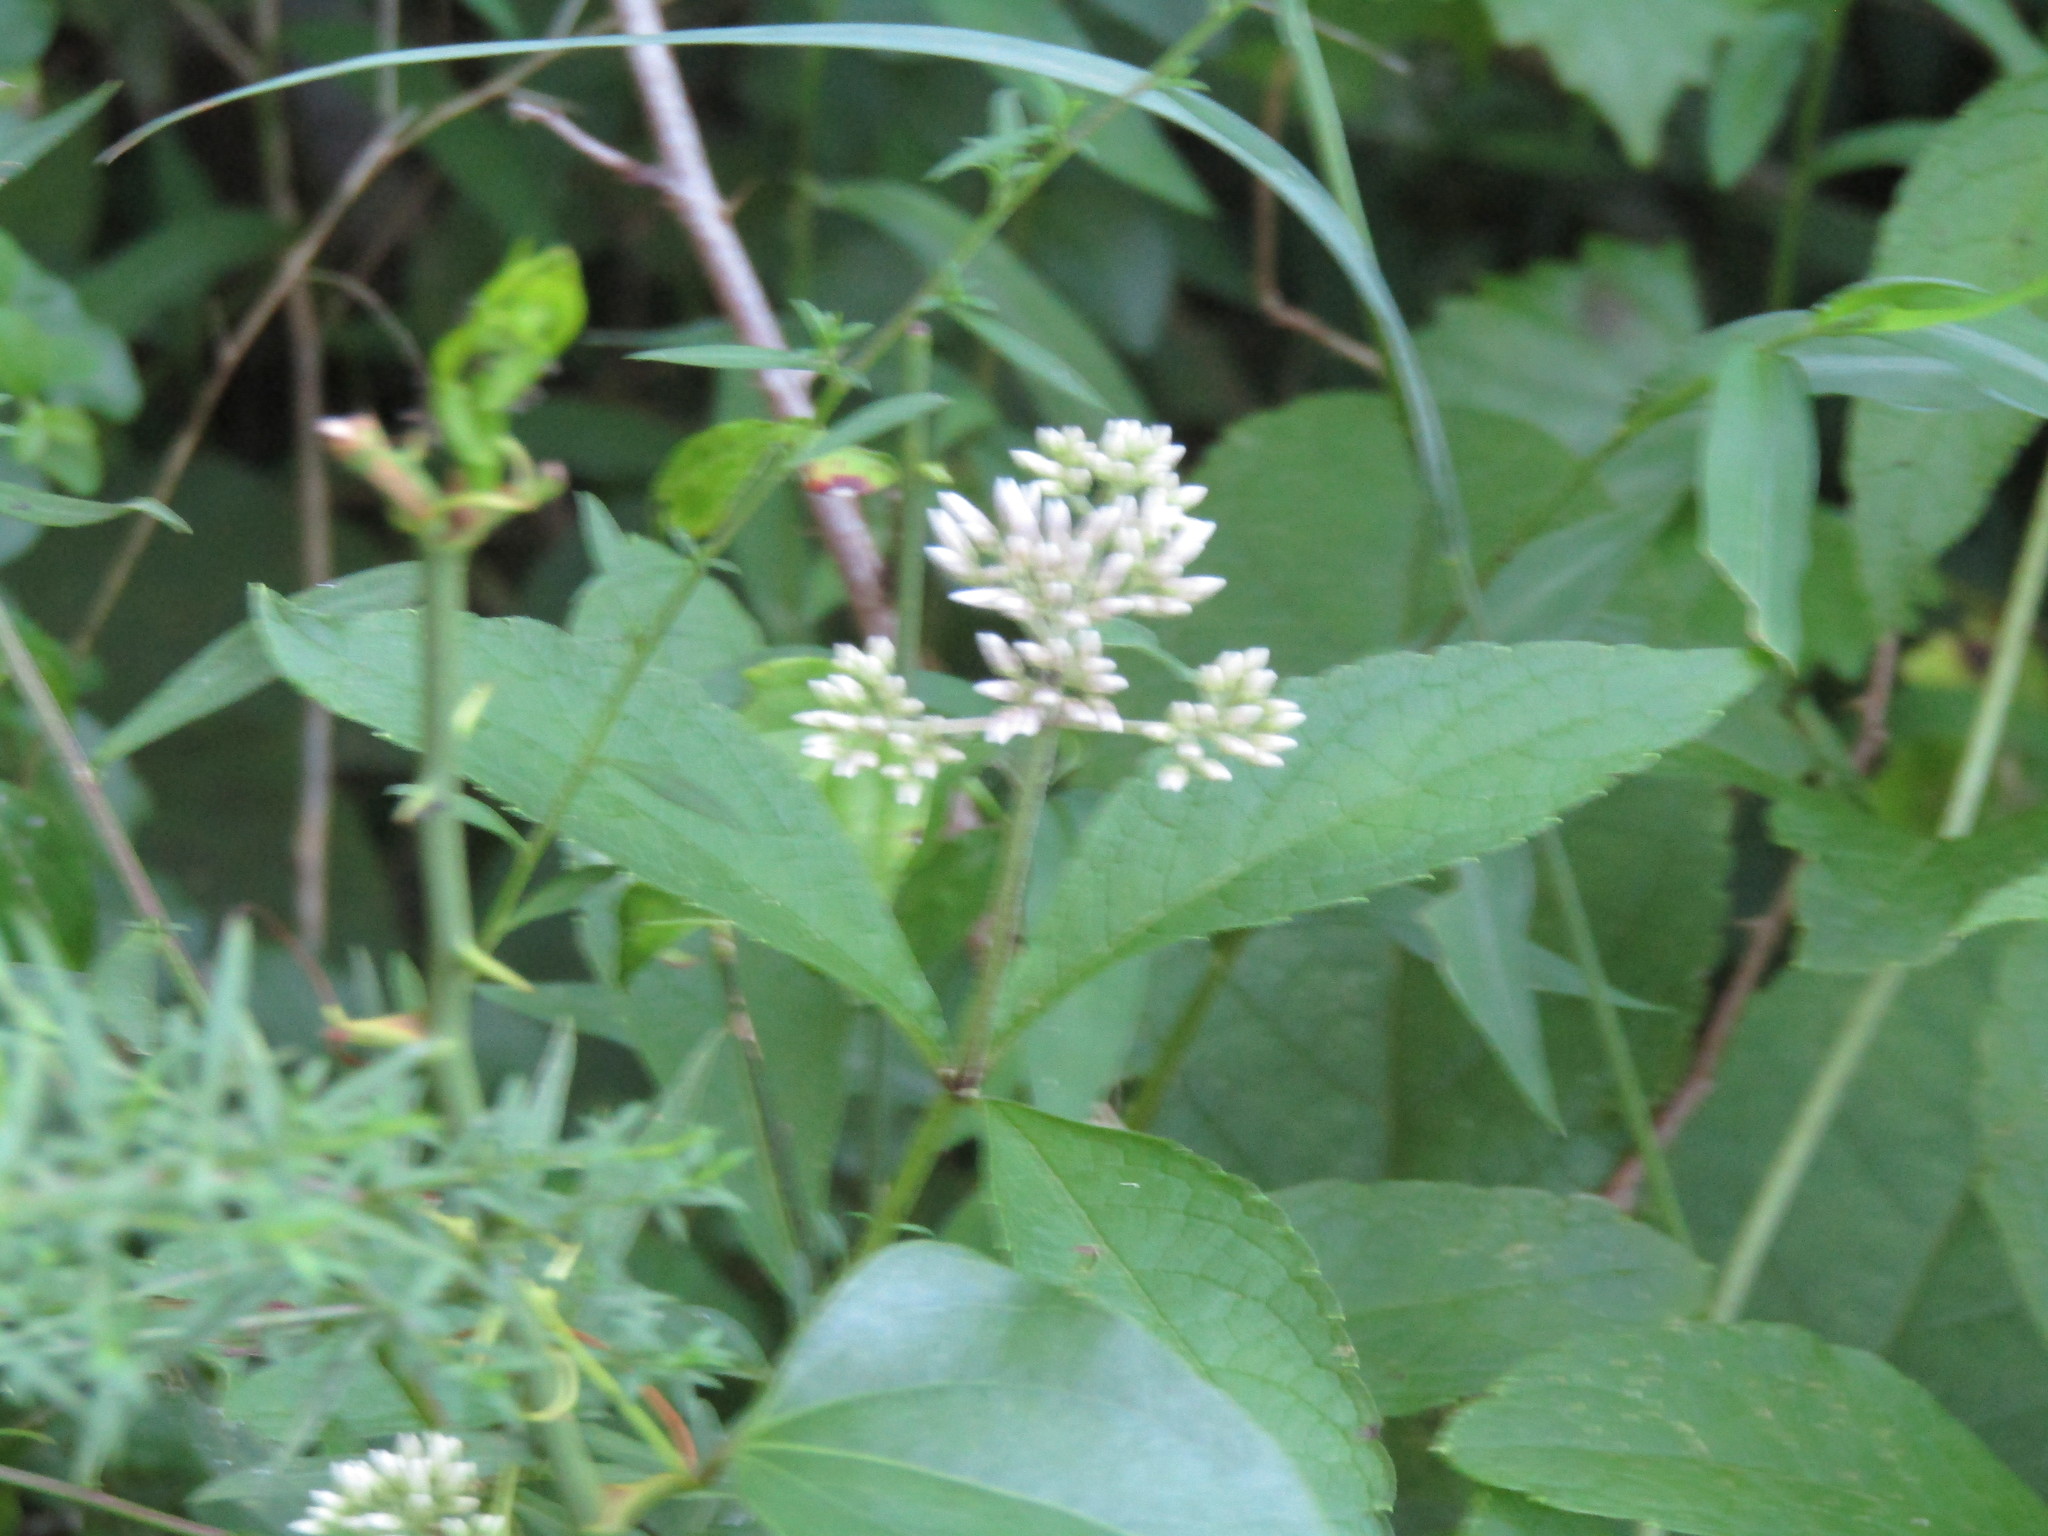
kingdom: Plantae
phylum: Tracheophyta
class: Magnoliopsida
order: Asterales
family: Asteraceae
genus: Eutrochium
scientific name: Eutrochium purpureum
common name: Gravelroot
